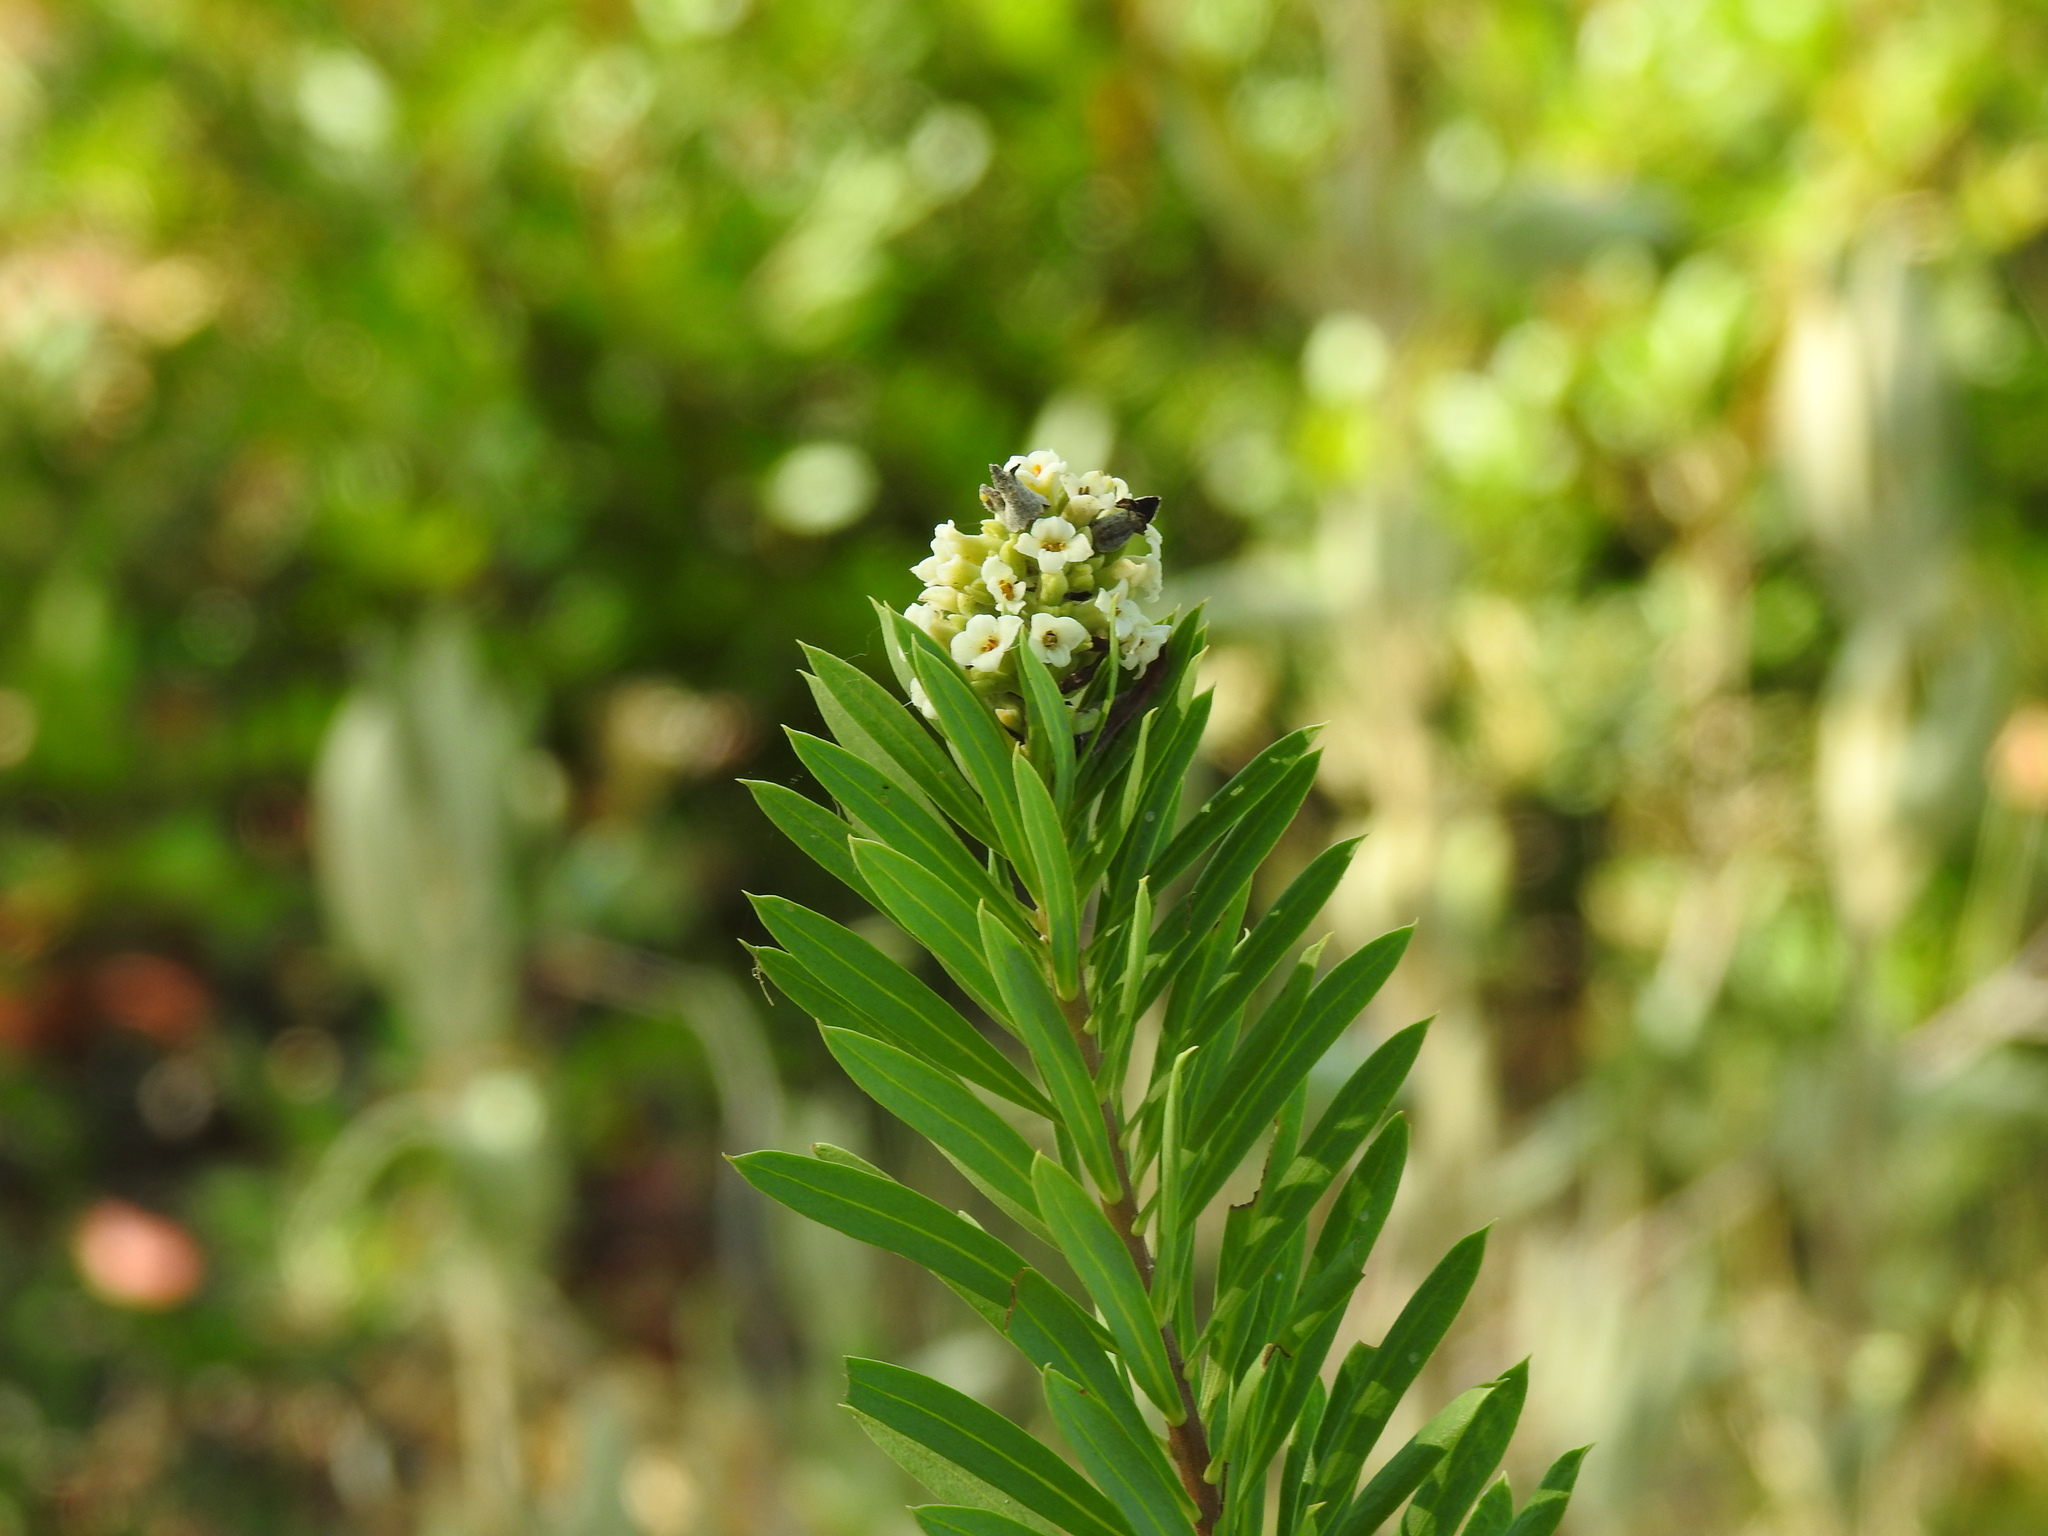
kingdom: Plantae
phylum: Tracheophyta
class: Magnoliopsida
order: Malvales
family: Thymelaeaceae
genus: Daphne
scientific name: Daphne gnidium
